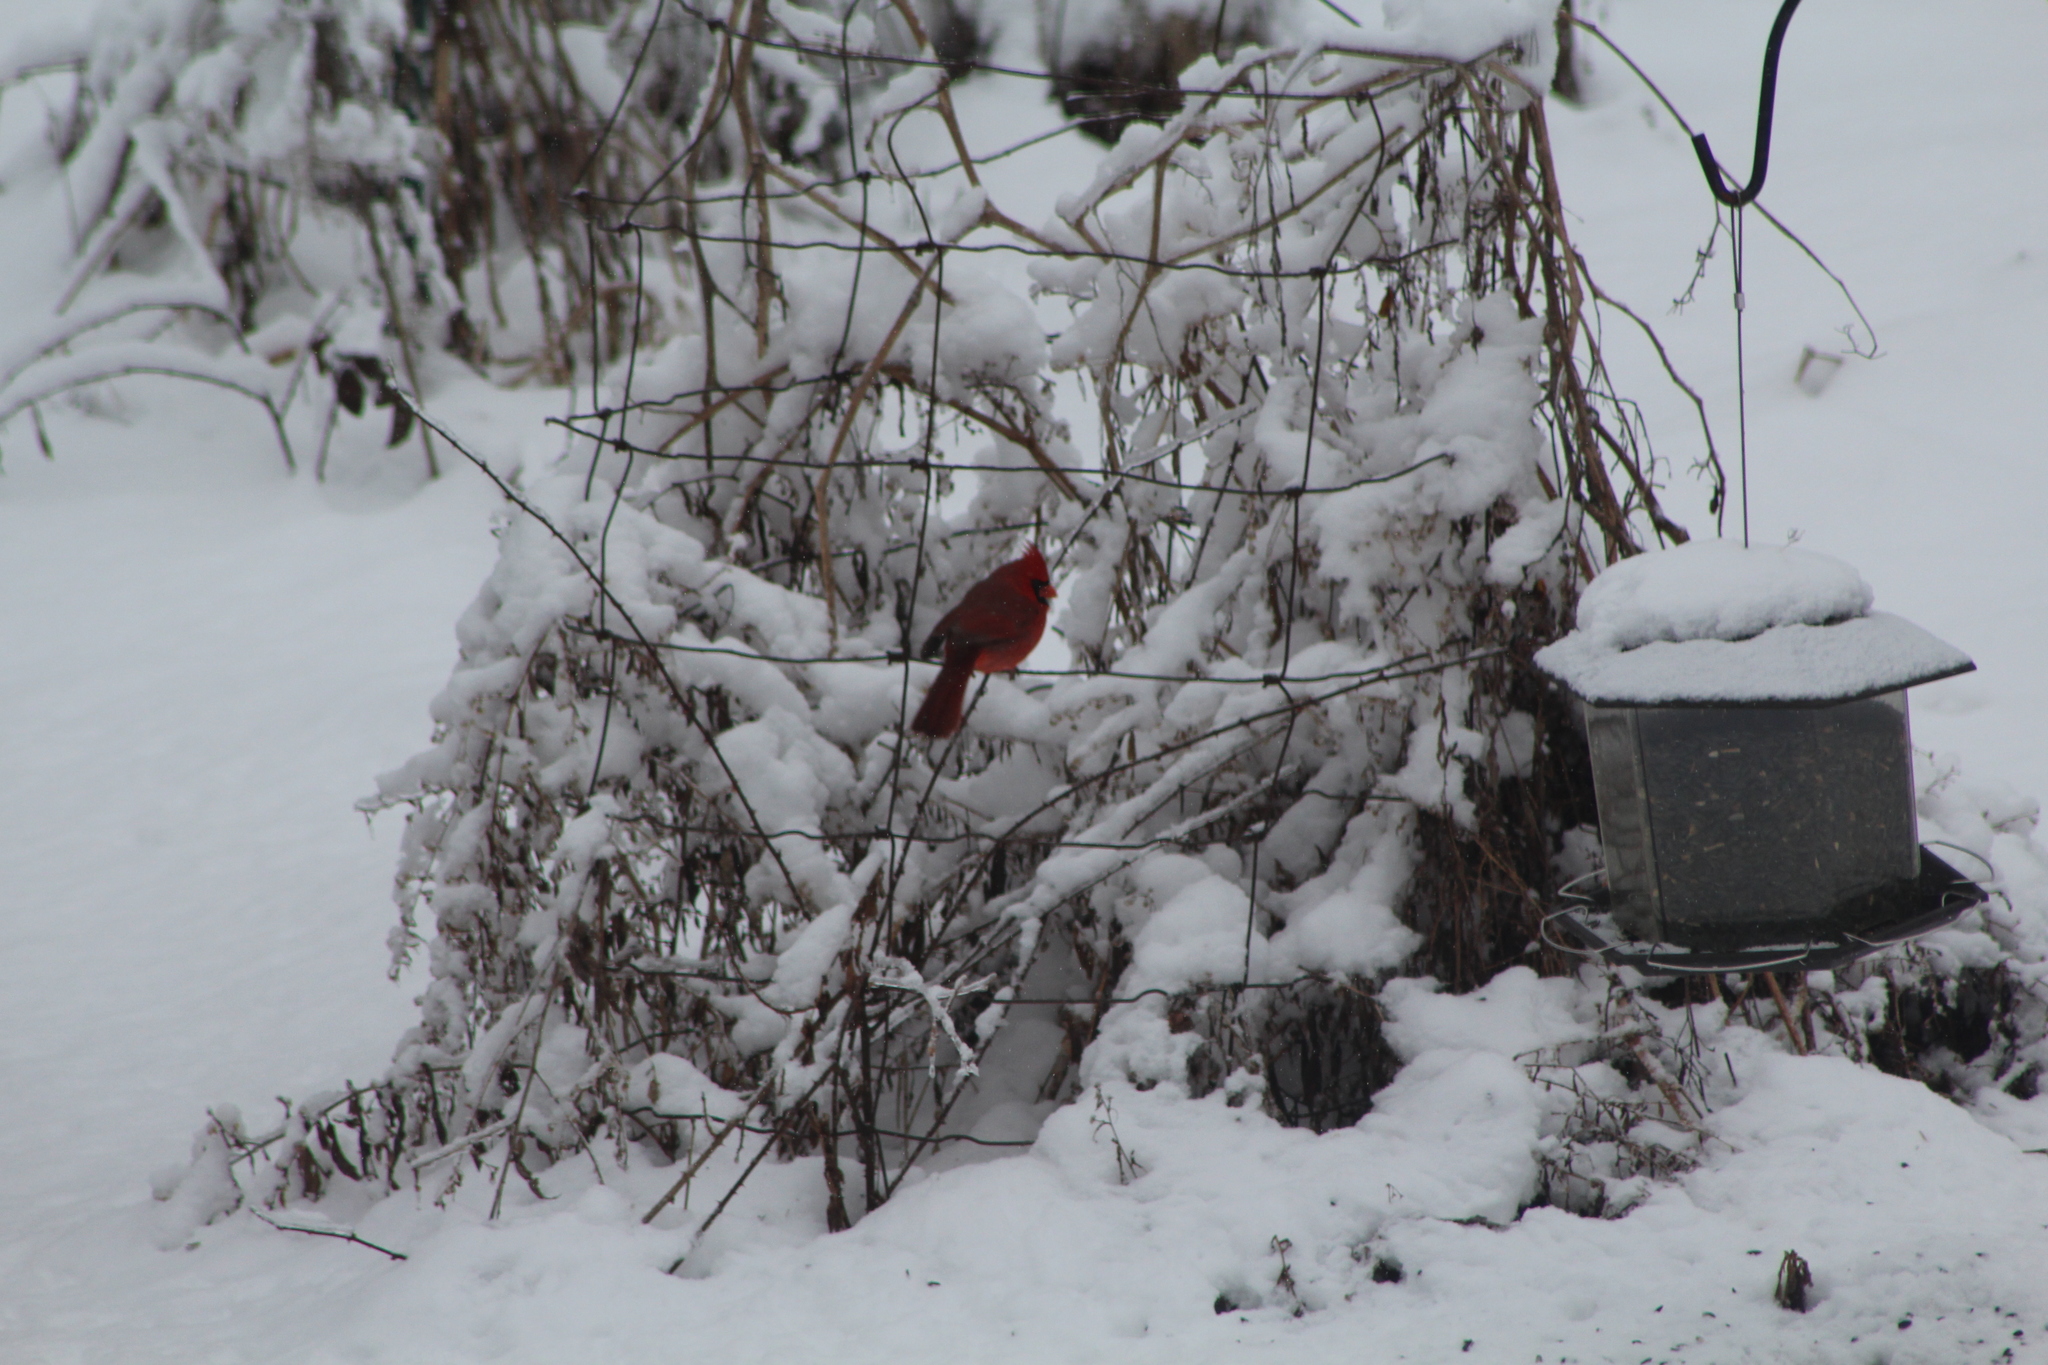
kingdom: Animalia
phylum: Chordata
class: Aves
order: Passeriformes
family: Cardinalidae
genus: Cardinalis
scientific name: Cardinalis cardinalis
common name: Northern cardinal
